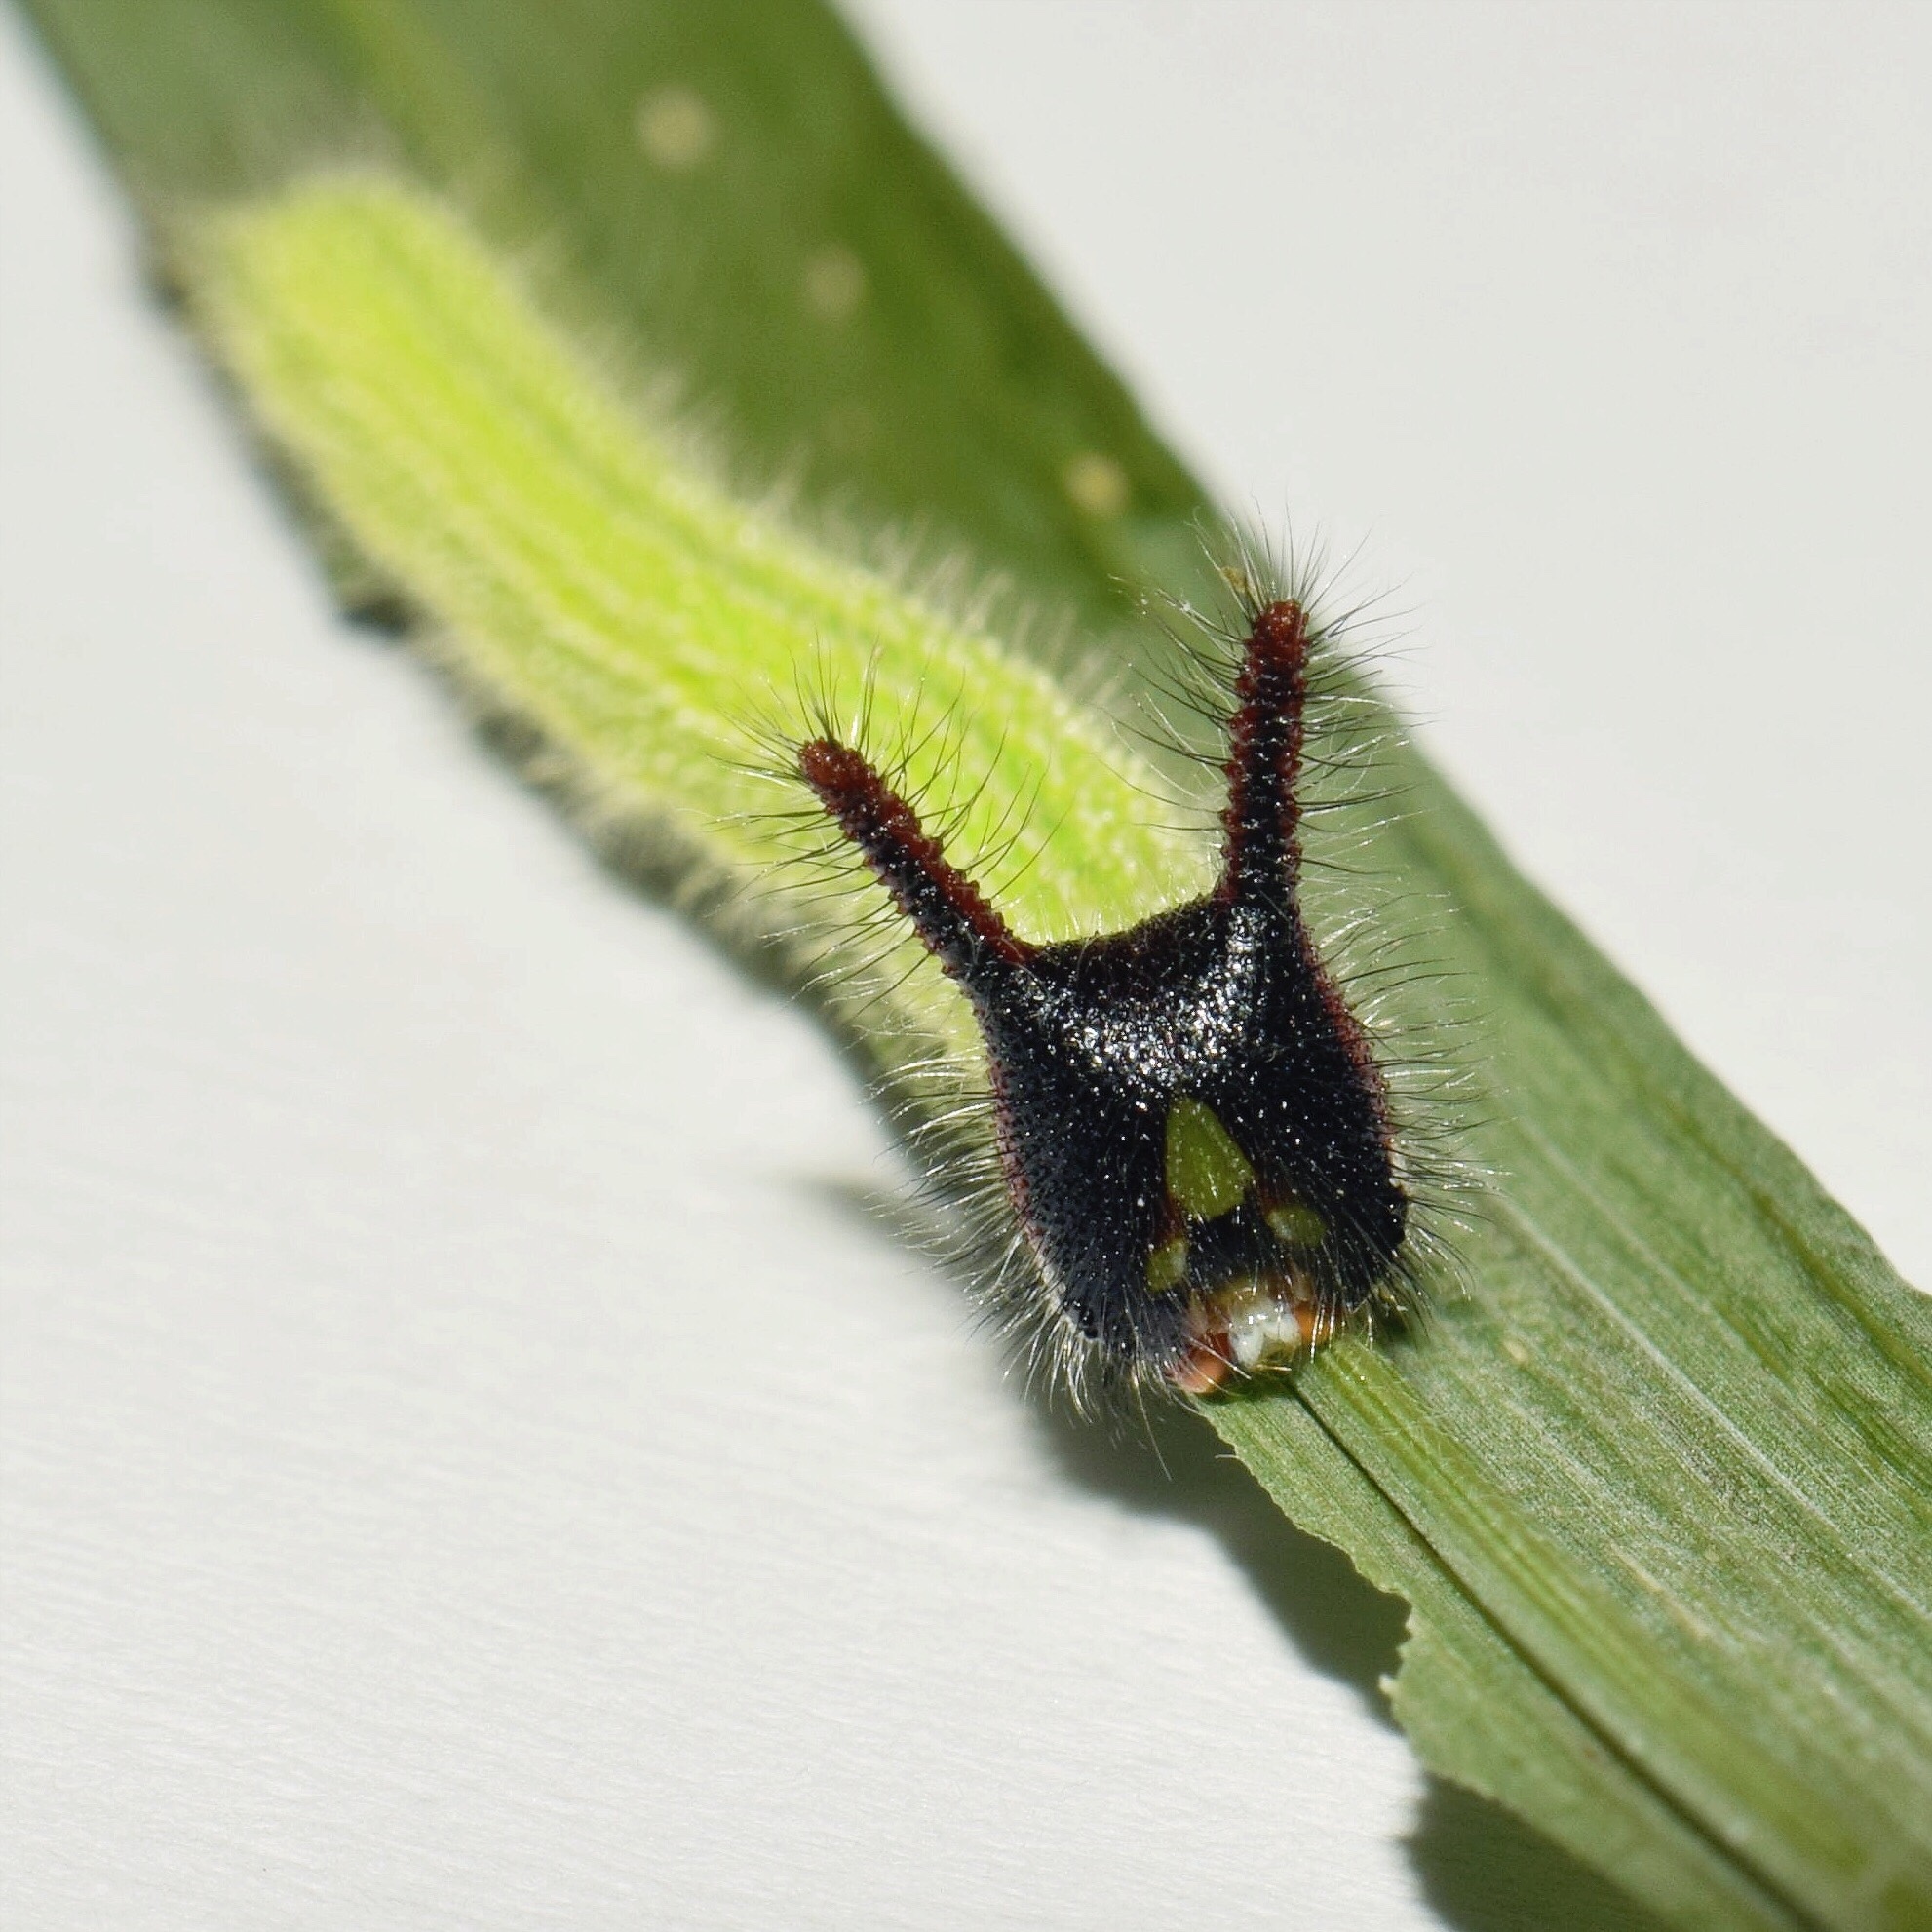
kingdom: Animalia
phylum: Arthropoda
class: Insecta
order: Lepidoptera
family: Nymphalidae
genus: Melanitis
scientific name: Melanitis leda
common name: Twilight brown
